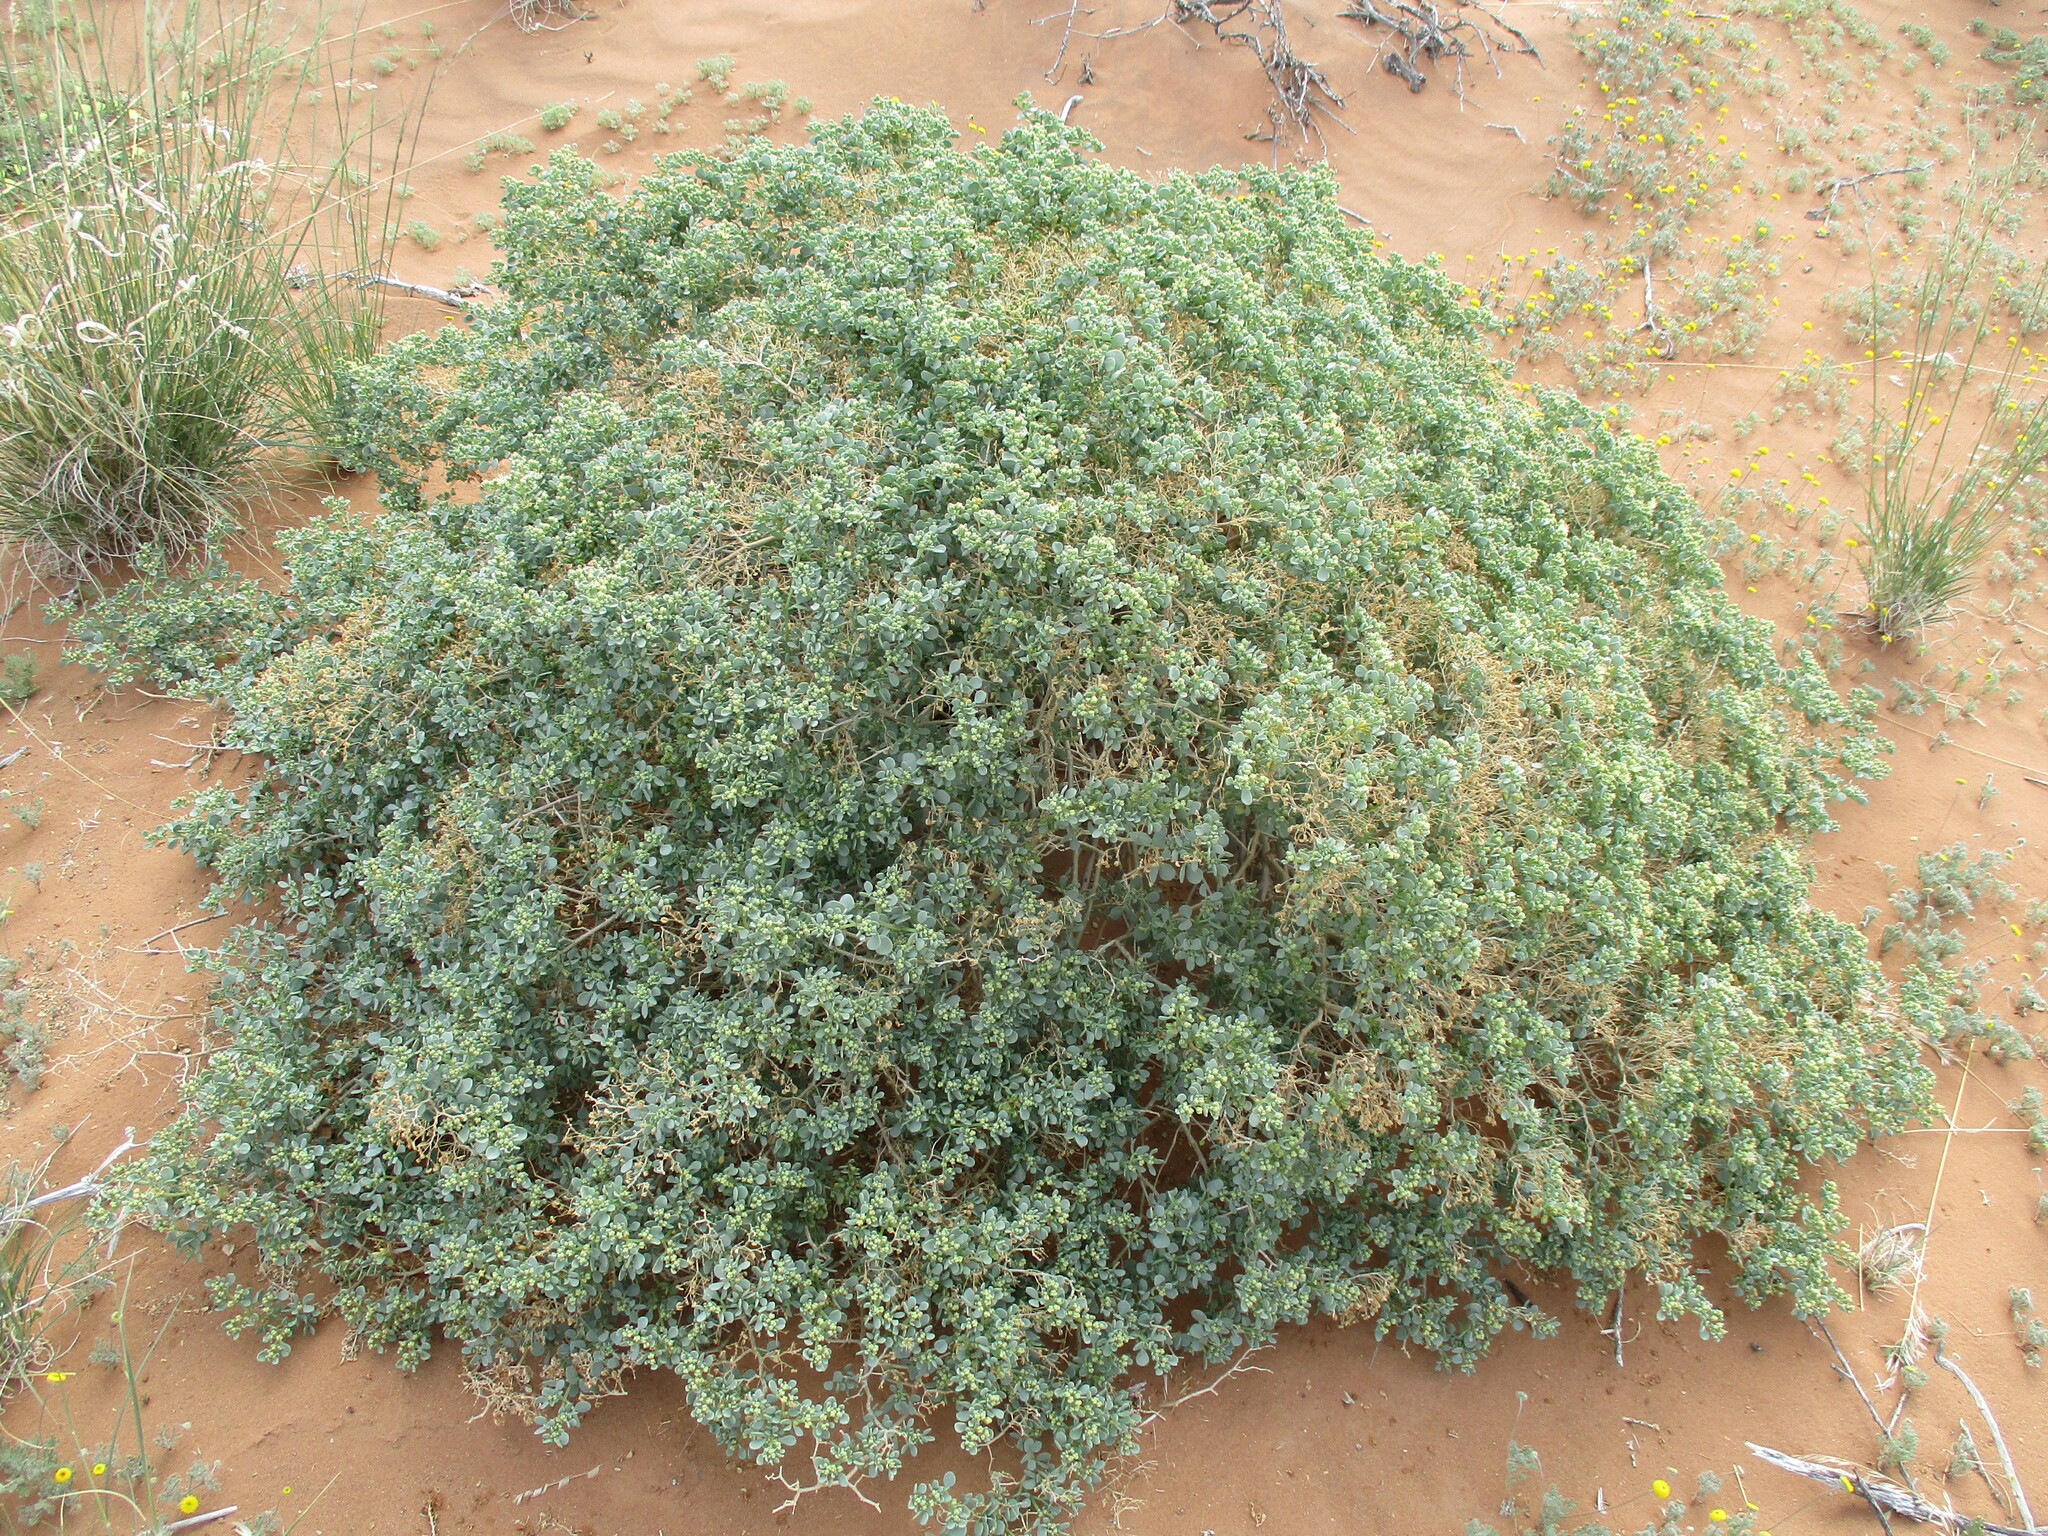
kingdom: Plantae
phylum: Tracheophyta
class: Magnoliopsida
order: Zygophyllales
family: Zygophyllaceae
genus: Tetraena
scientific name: Tetraena decumbens
